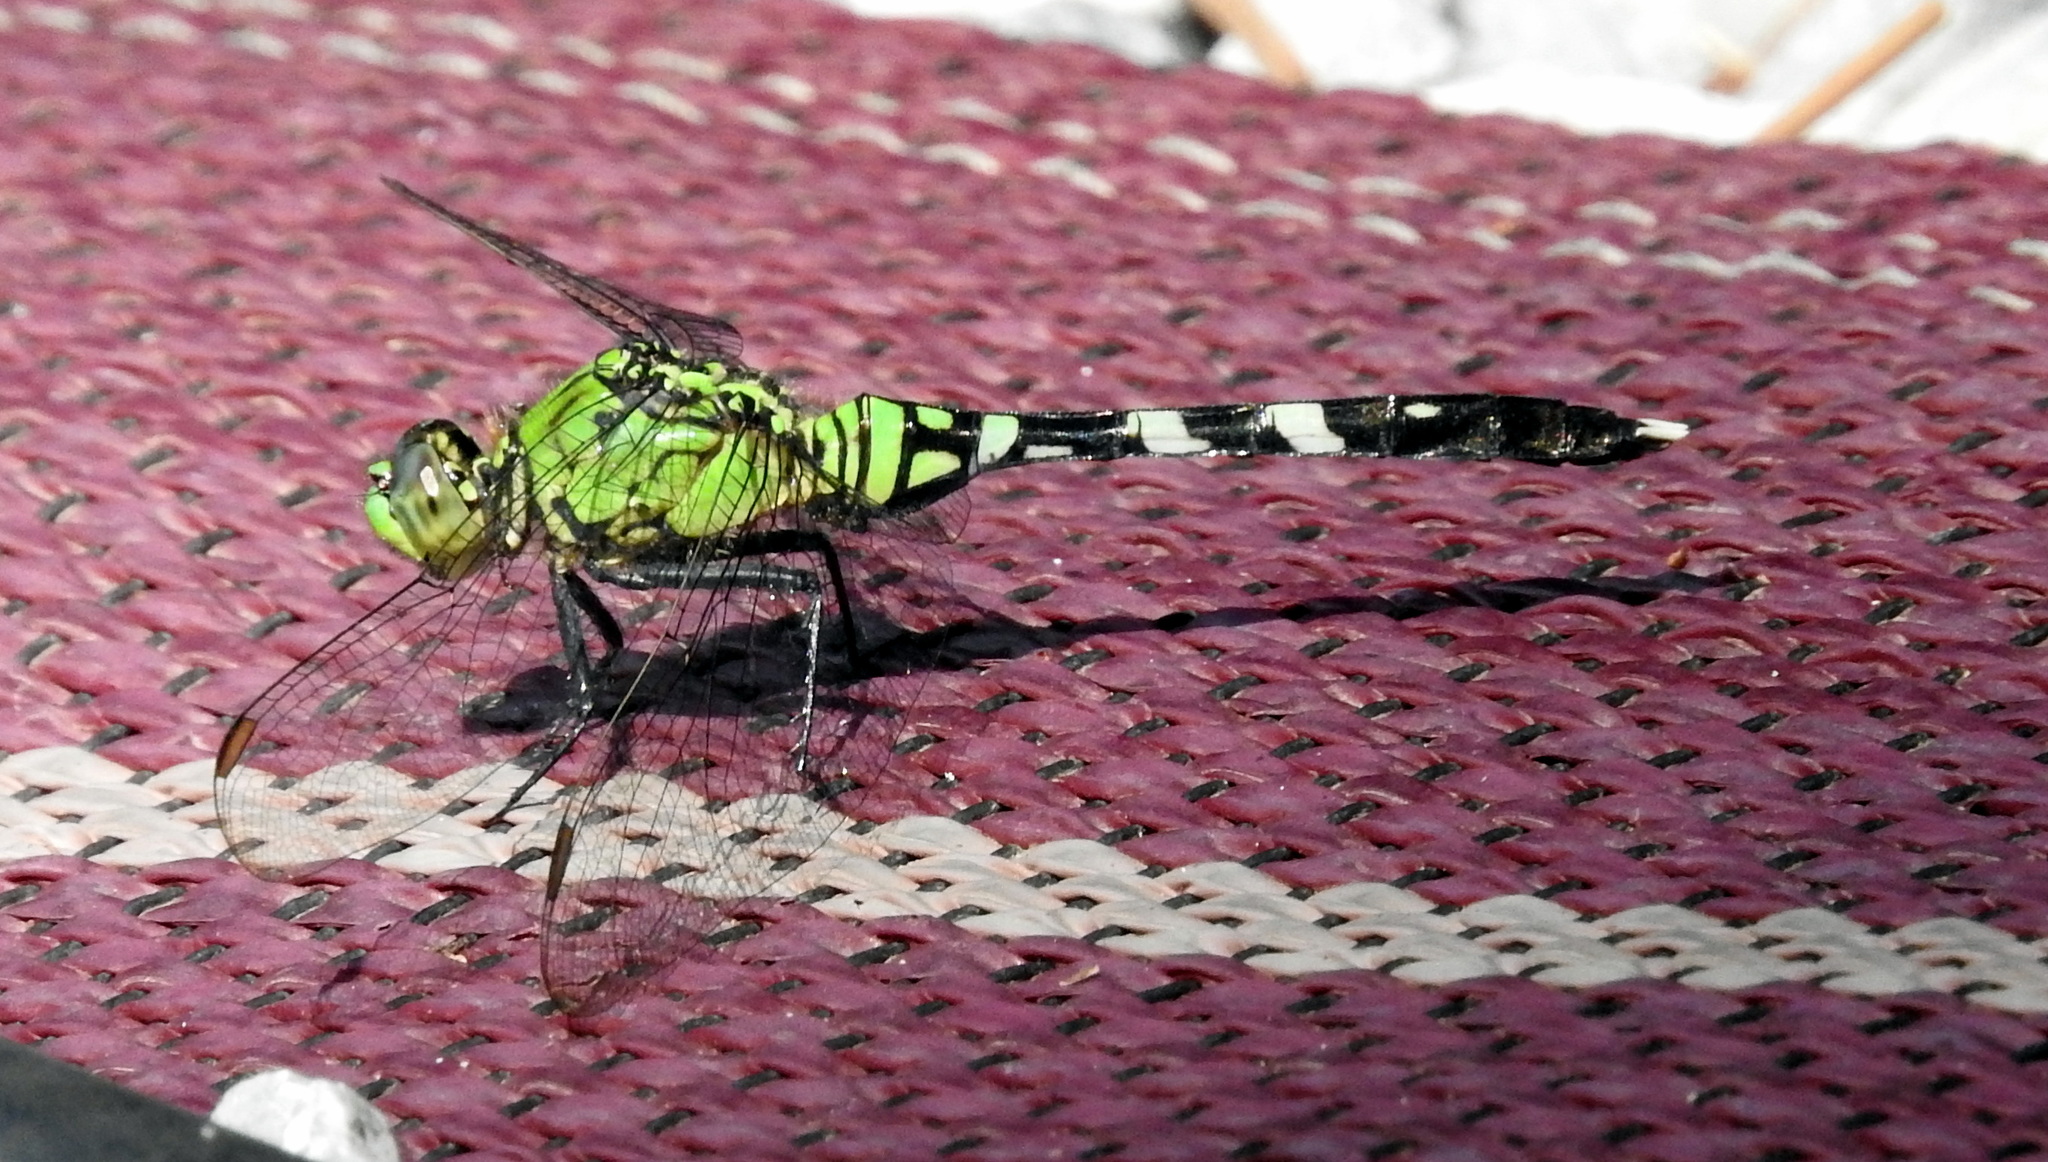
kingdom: Animalia
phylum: Arthropoda
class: Insecta
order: Odonata
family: Libellulidae
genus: Erythemis
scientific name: Erythemis simplicicollis
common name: Eastern pondhawk
